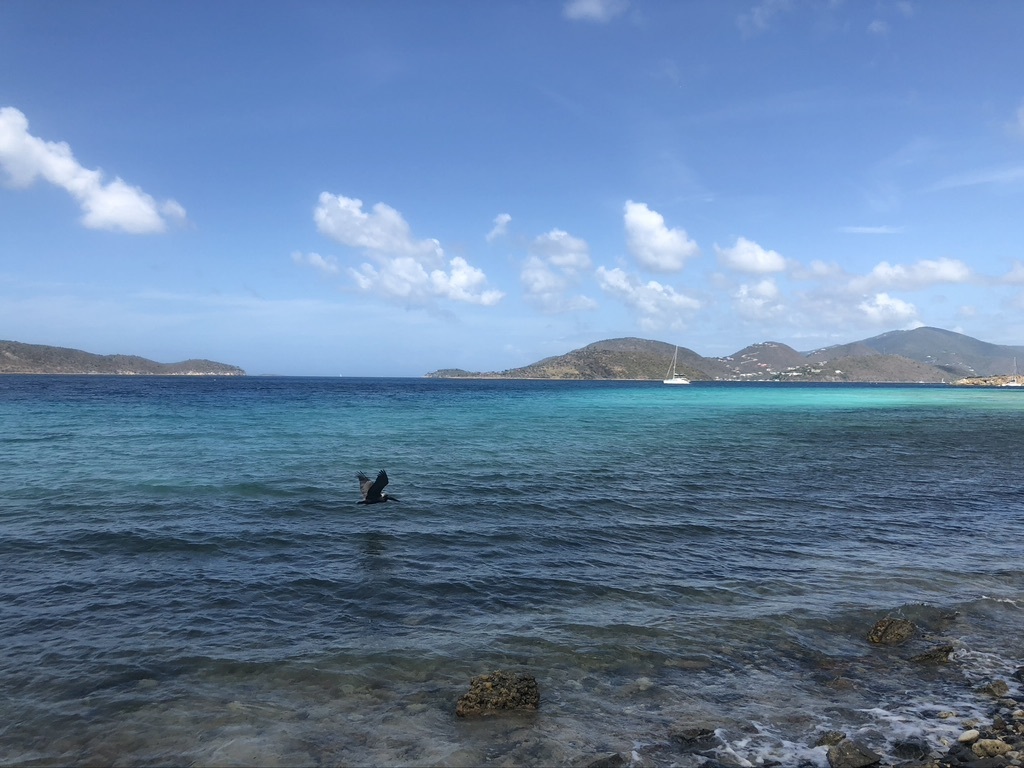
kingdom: Animalia
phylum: Chordata
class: Aves
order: Pelecaniformes
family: Pelecanidae
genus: Pelecanus
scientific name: Pelecanus occidentalis
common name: Brown pelican
